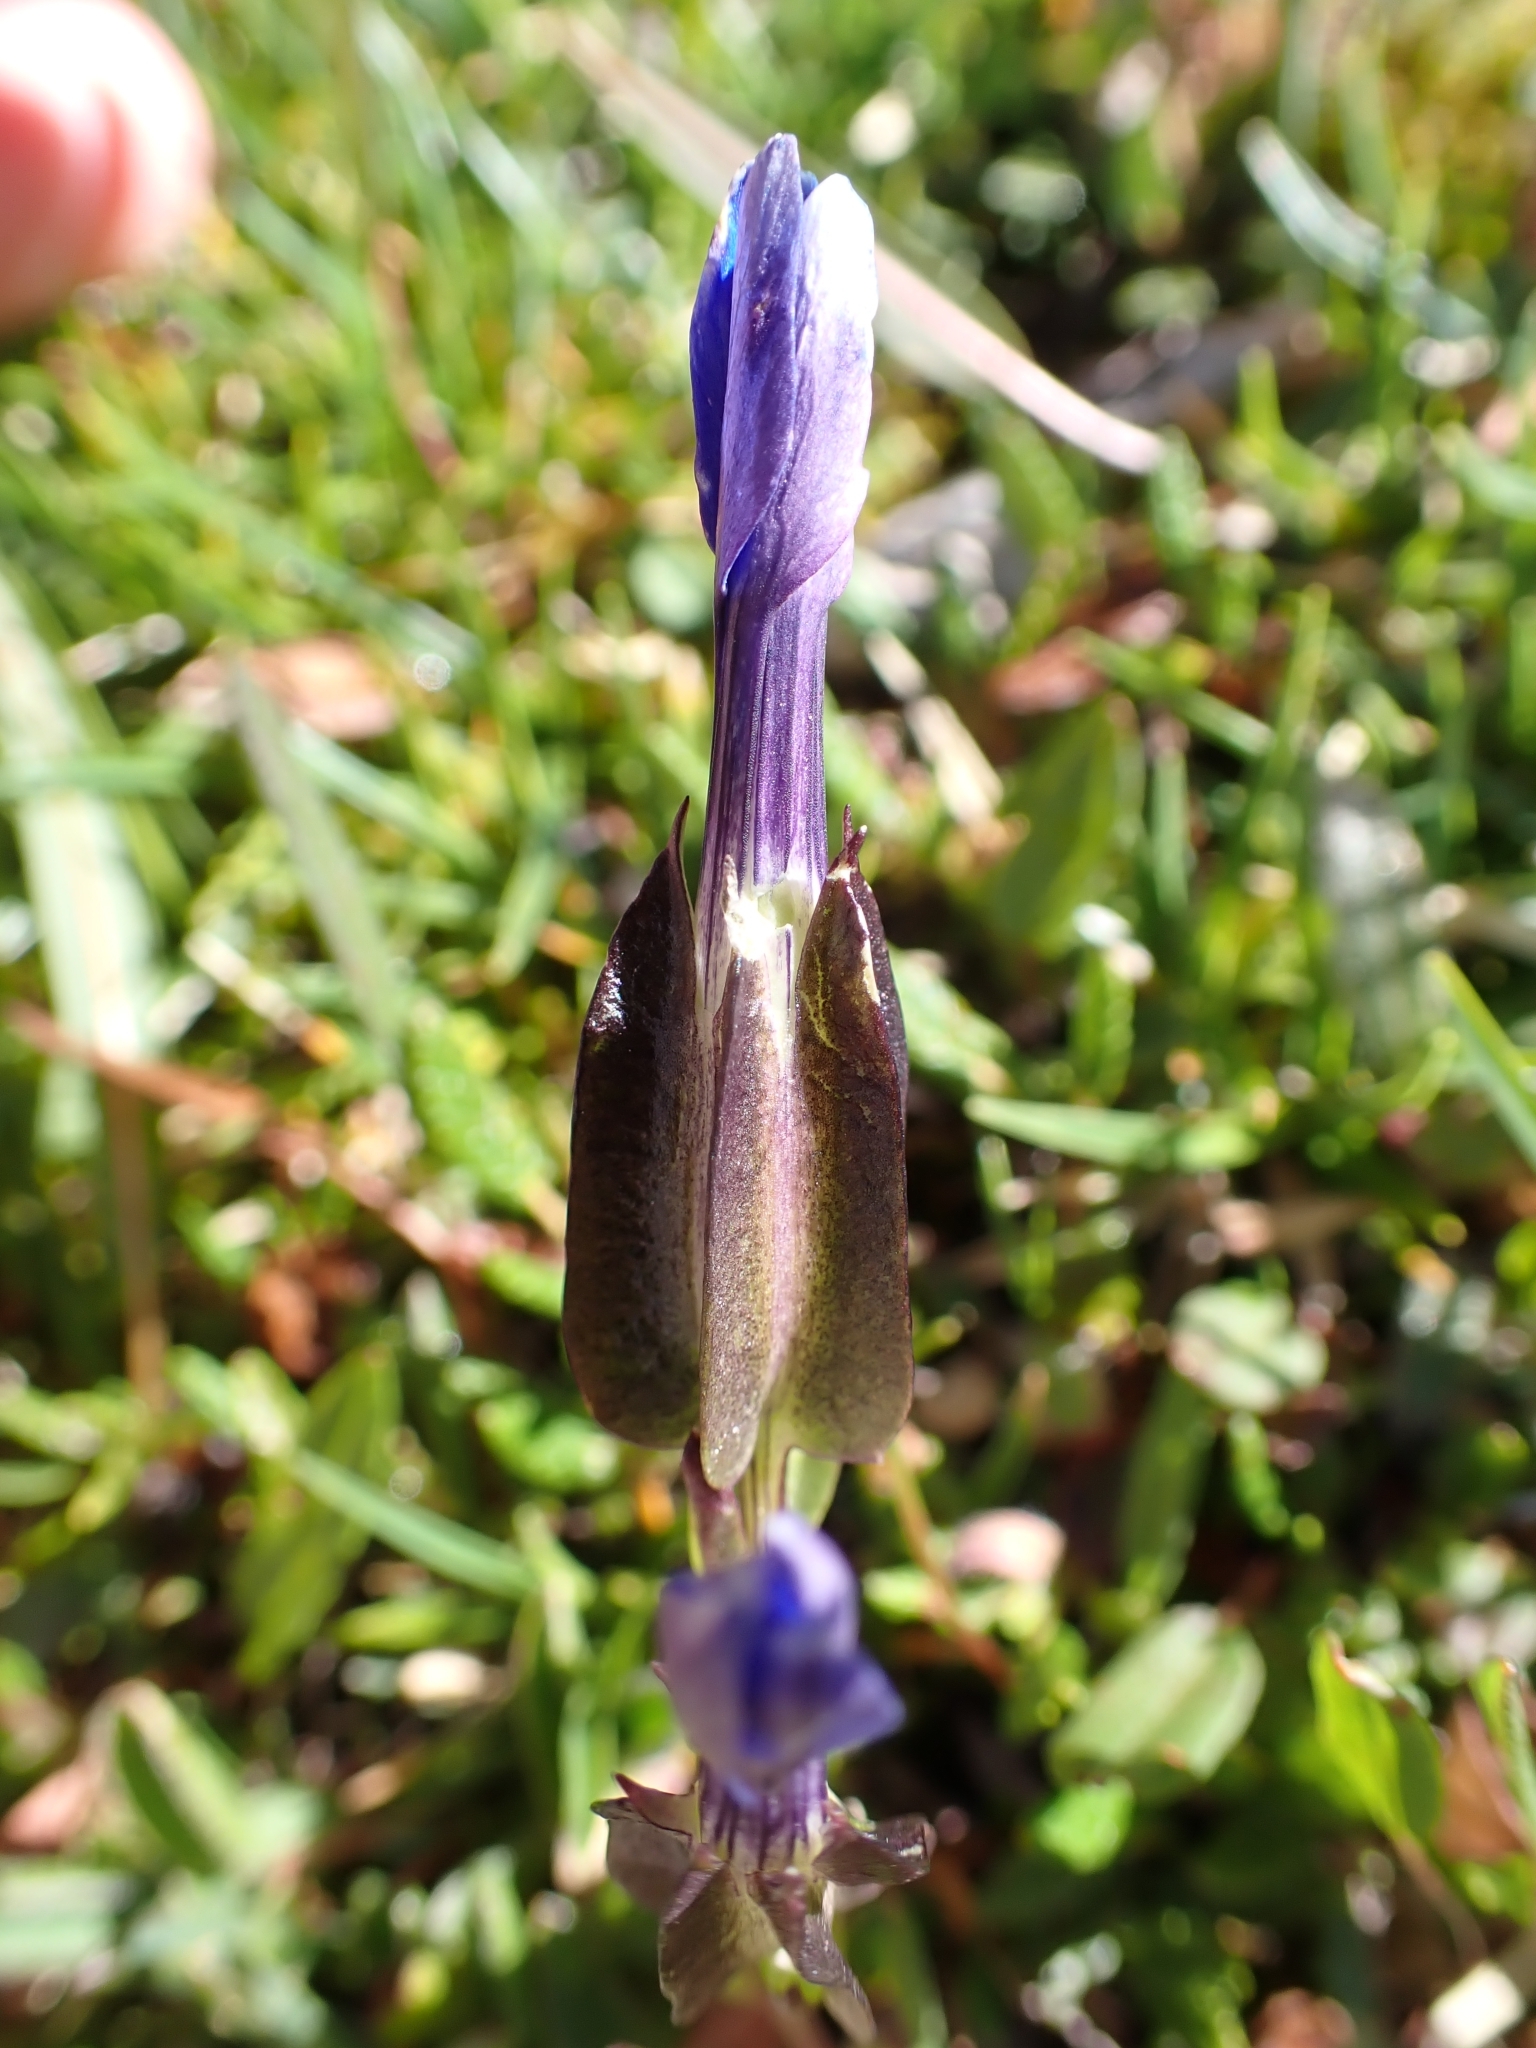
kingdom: Plantae
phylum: Tracheophyta
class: Magnoliopsida
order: Gentianales
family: Gentianaceae
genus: Gentiana
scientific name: Gentiana utriculosa
